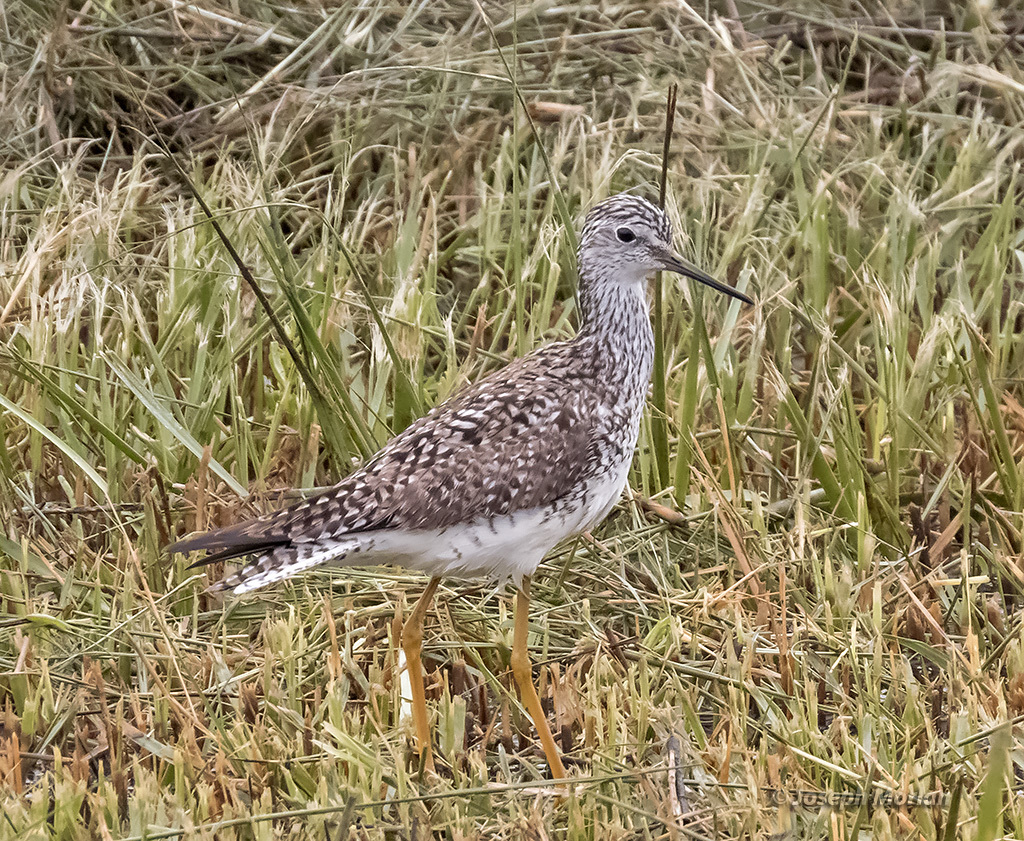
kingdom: Animalia
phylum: Chordata
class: Aves
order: Charadriiformes
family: Scolopacidae
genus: Tringa
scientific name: Tringa flavipes
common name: Lesser yellowlegs
